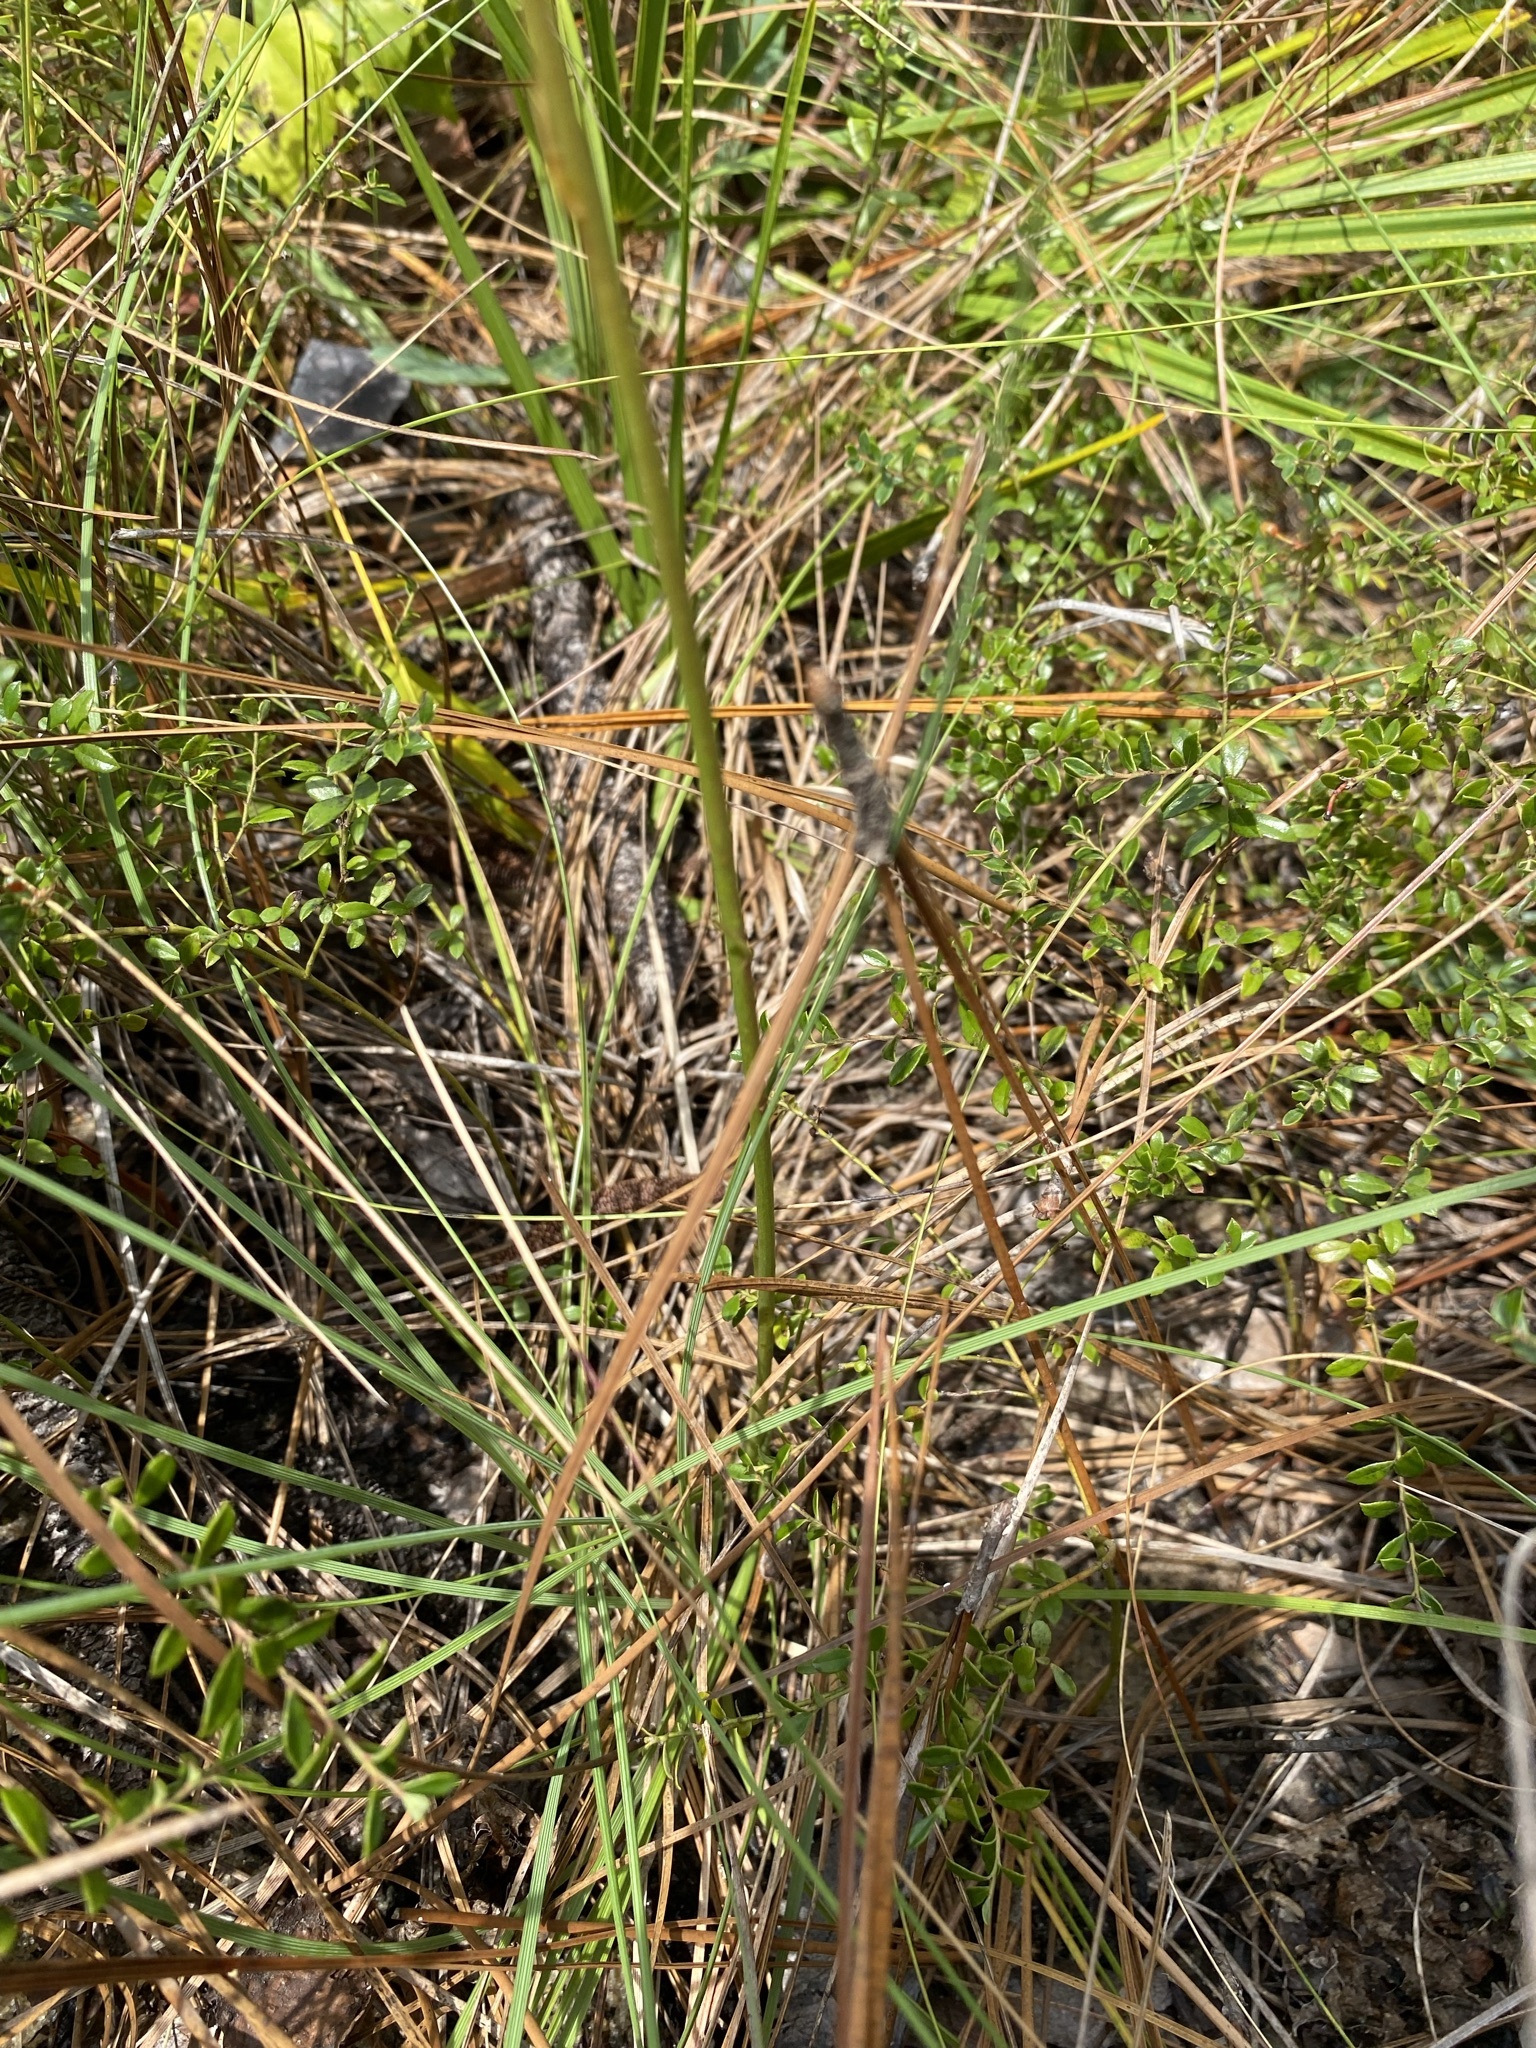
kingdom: Plantae
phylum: Tracheophyta
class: Liliopsida
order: Asparagales
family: Asparagaceae
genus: Nolina
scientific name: Nolina atopocarpa
